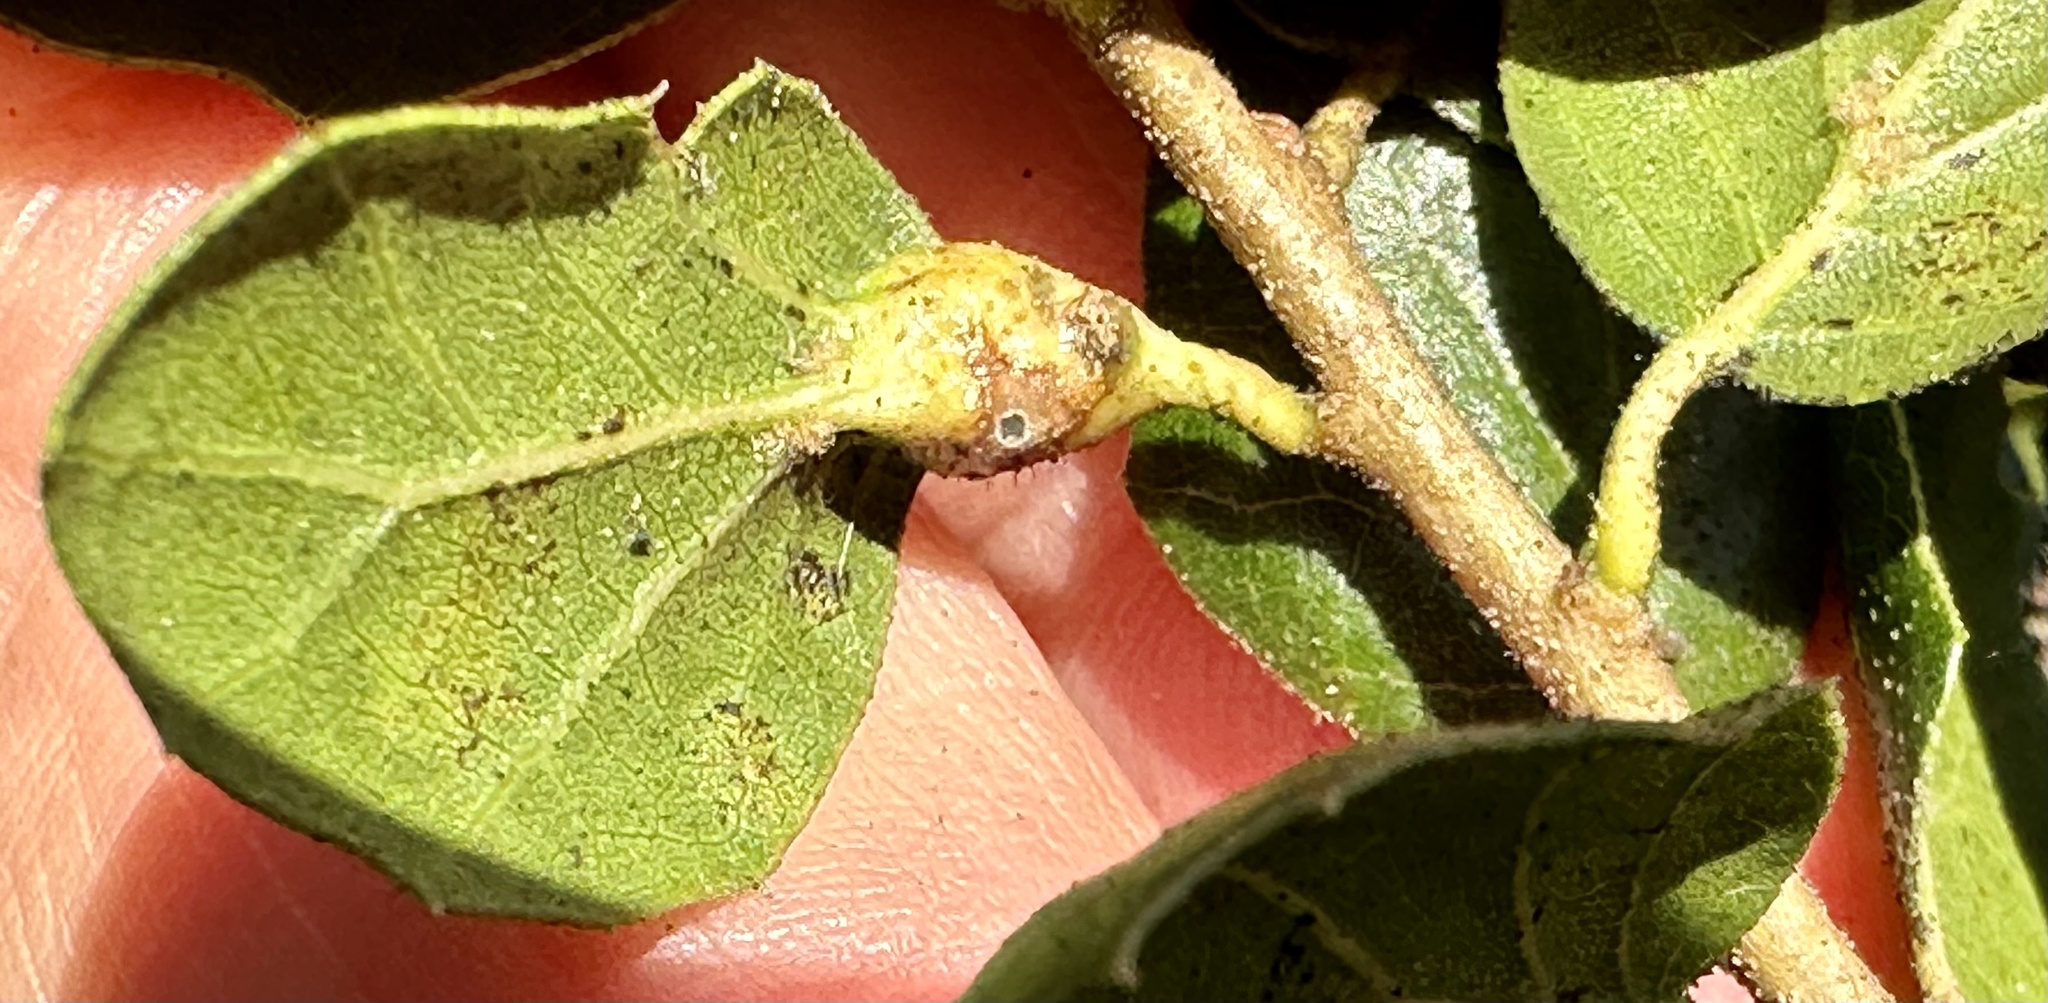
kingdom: Animalia
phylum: Arthropoda
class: Insecta
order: Hymenoptera
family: Cynipidae
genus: Melikaiella
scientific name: Melikaiella
